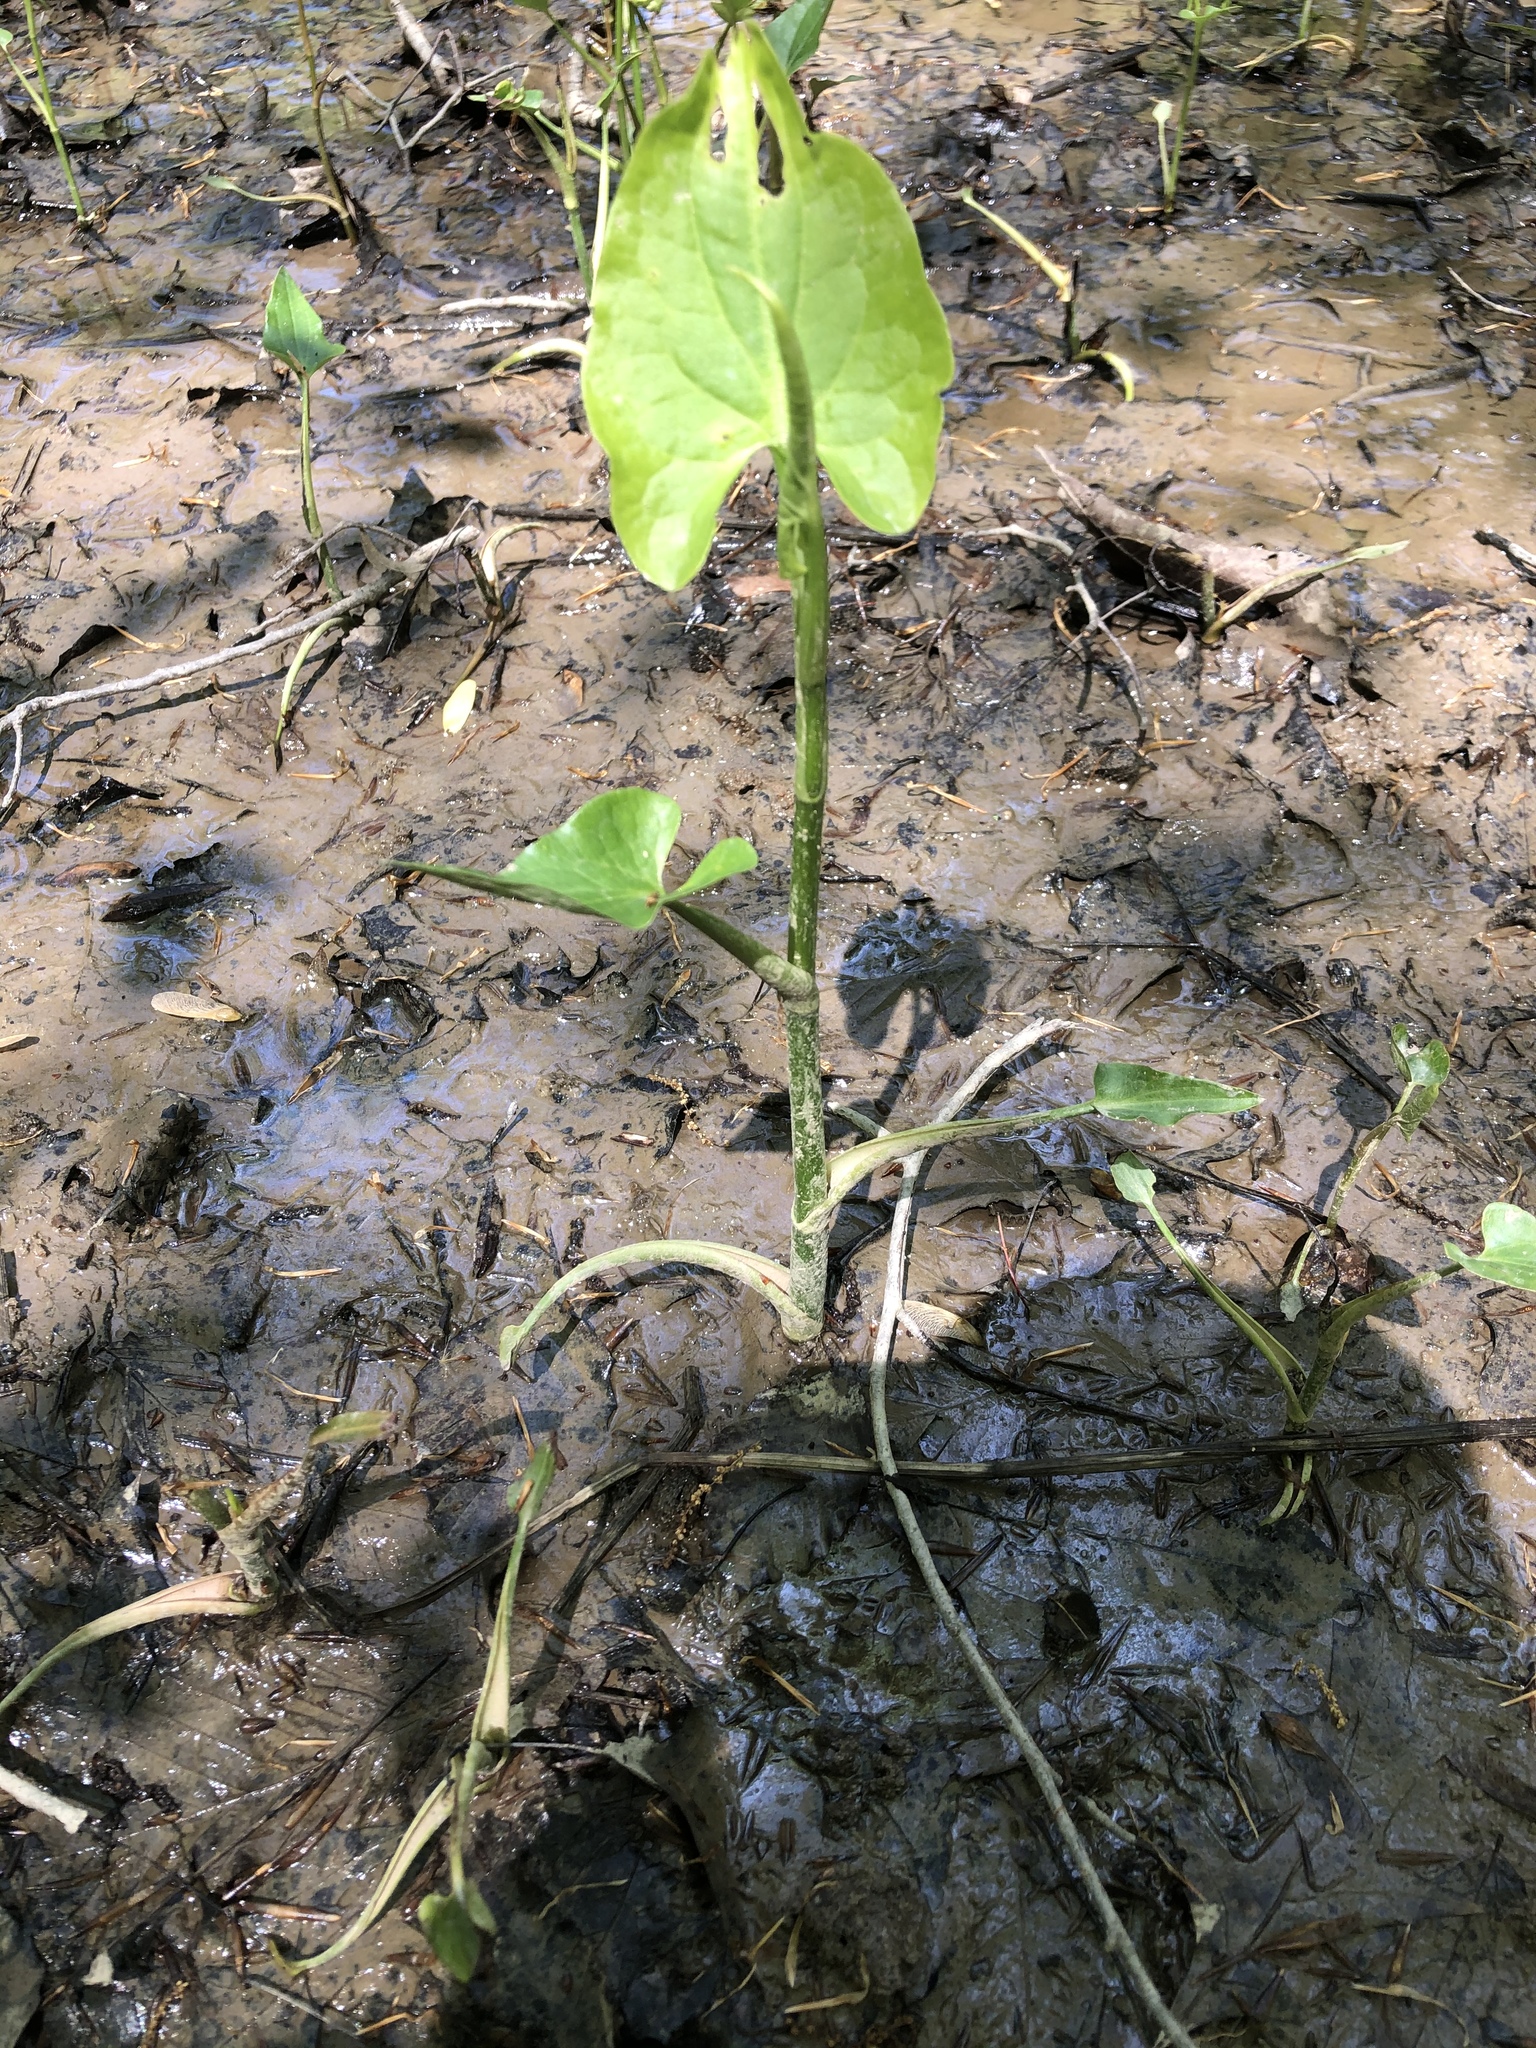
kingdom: Plantae
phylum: Tracheophyta
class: Magnoliopsida
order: Piperales
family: Saururaceae
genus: Saururus
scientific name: Saururus cernuus
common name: Lizard's-tail
